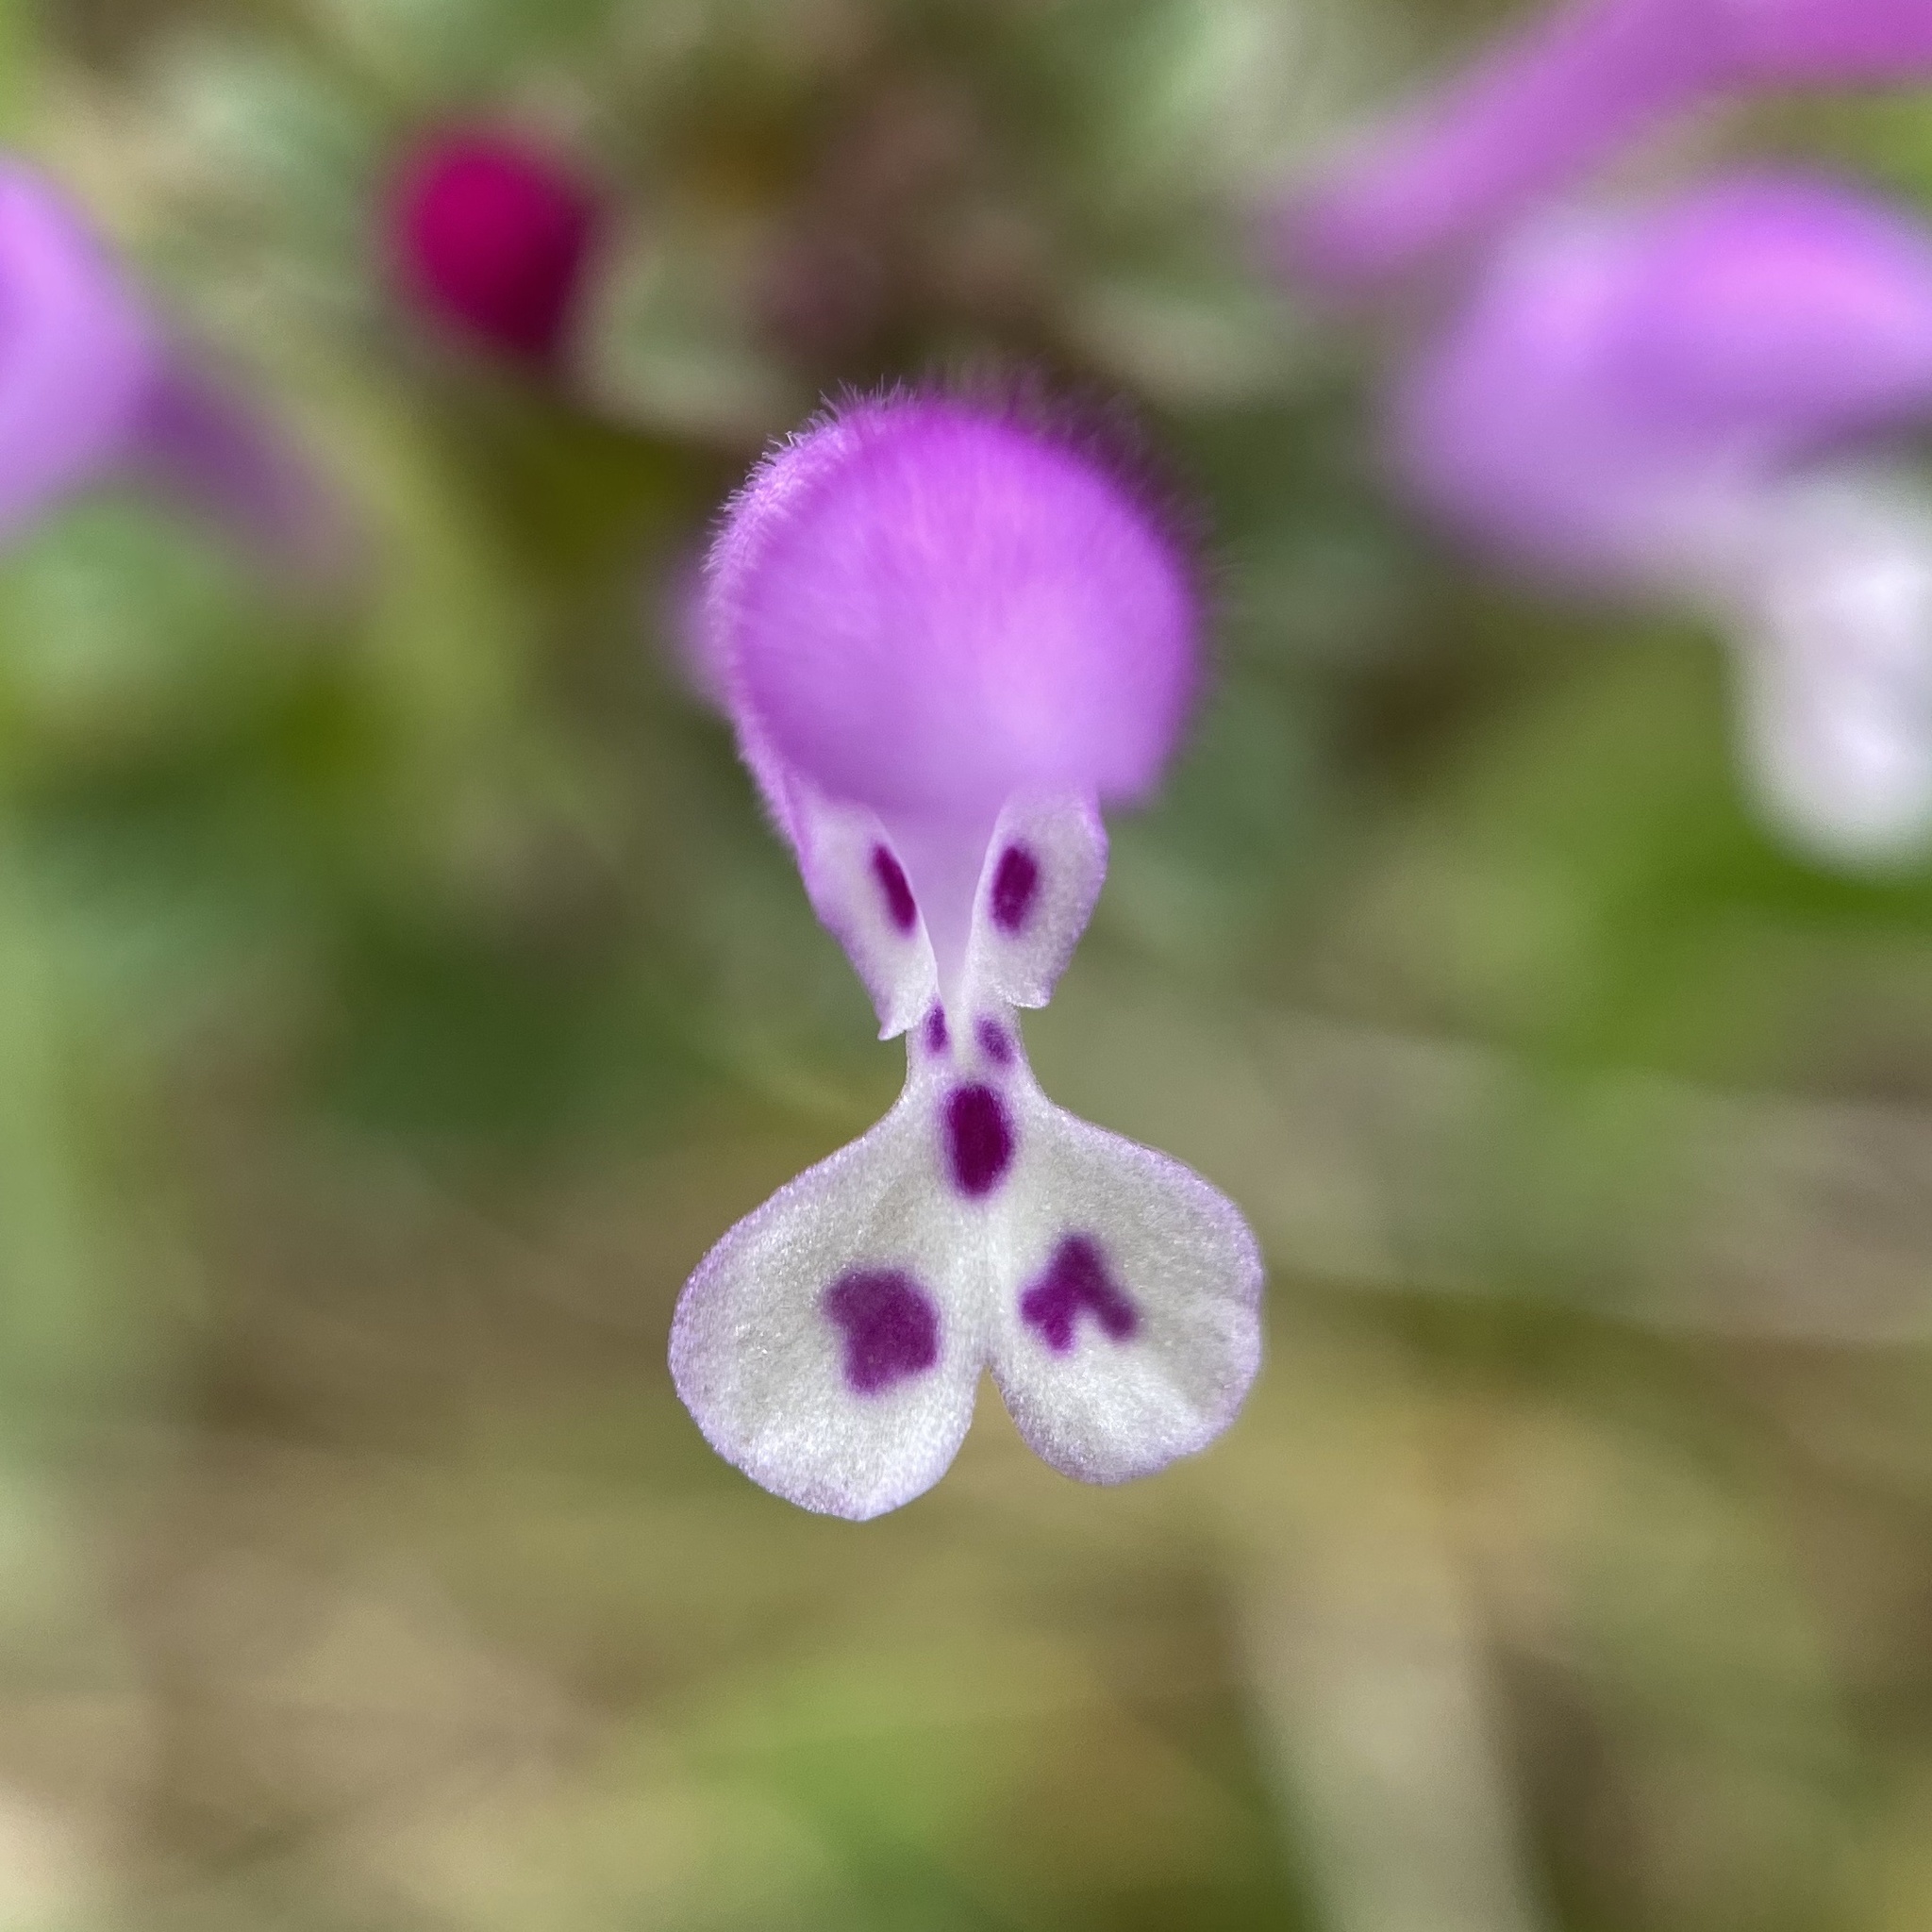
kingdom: Plantae
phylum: Tracheophyta
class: Magnoliopsida
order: Lamiales
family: Lamiaceae
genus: Lamium
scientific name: Lamium amplexicaule
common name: Henbit dead-nettle
